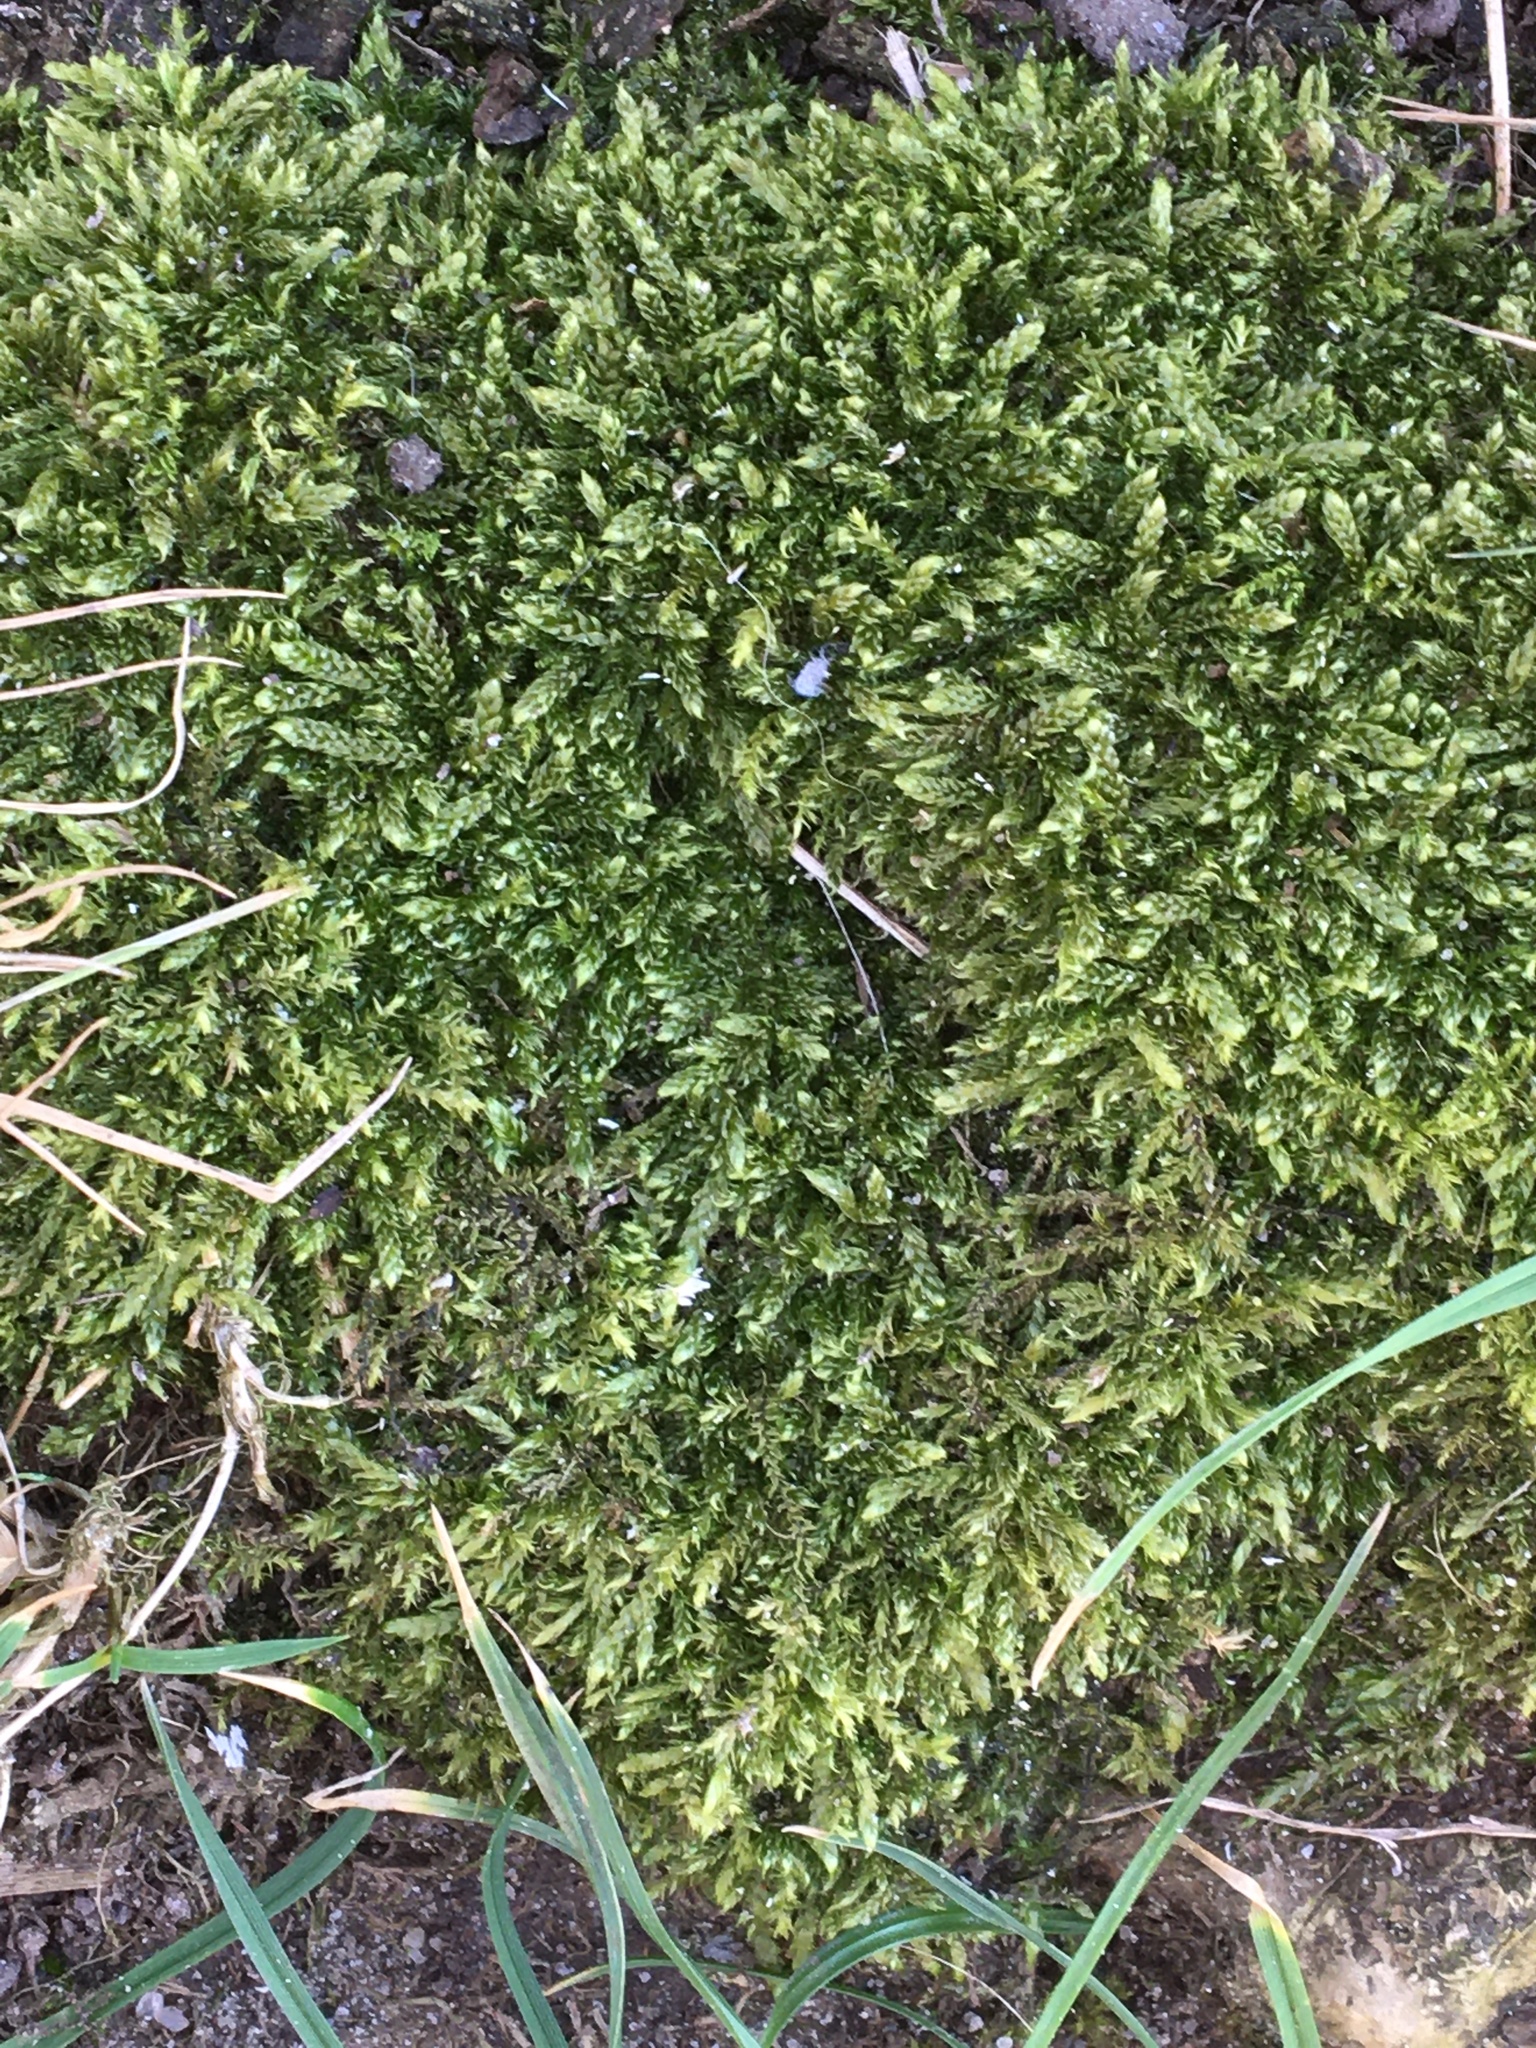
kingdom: Plantae
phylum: Bryophyta
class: Bryopsida
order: Hypnales
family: Hypnaceae
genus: Hypnum
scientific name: Hypnum cupressiforme
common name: Cypress-leaved plait-moss
